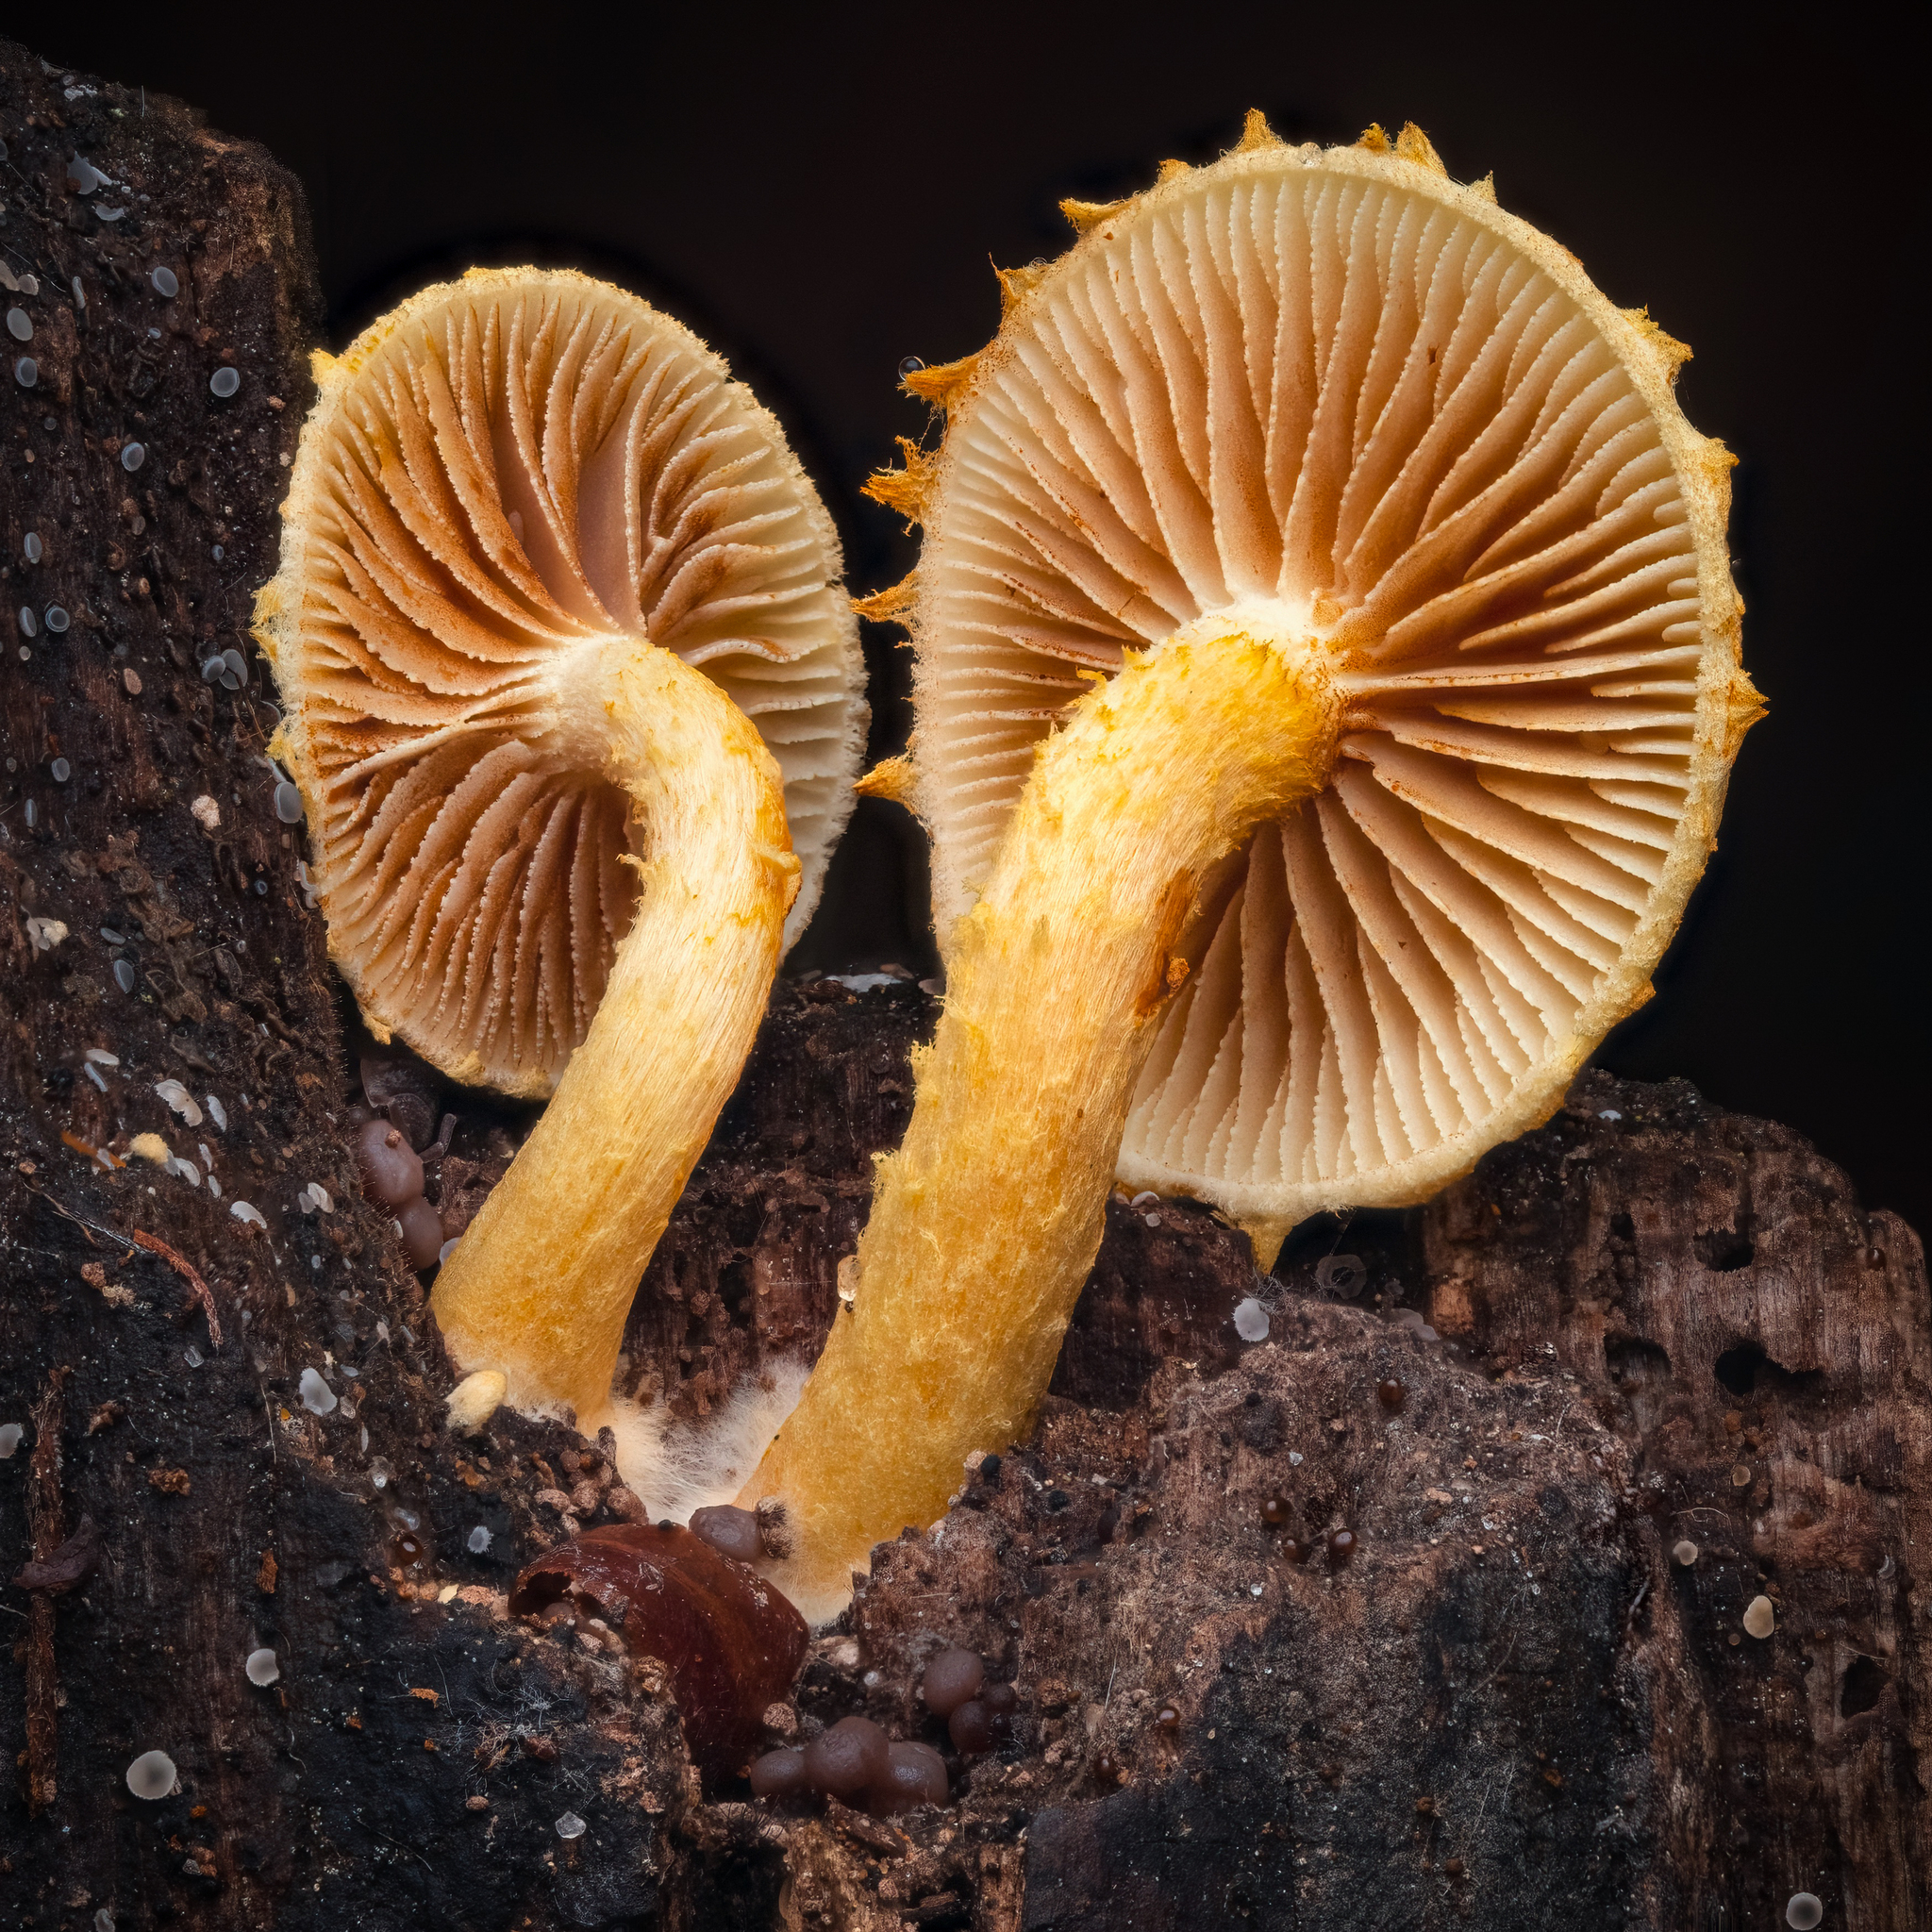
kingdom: Fungi
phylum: Basidiomycota
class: Agaricomycetes
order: Agaricales
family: Strophariaceae
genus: Pholiota
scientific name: Pholiota tuberculosa
